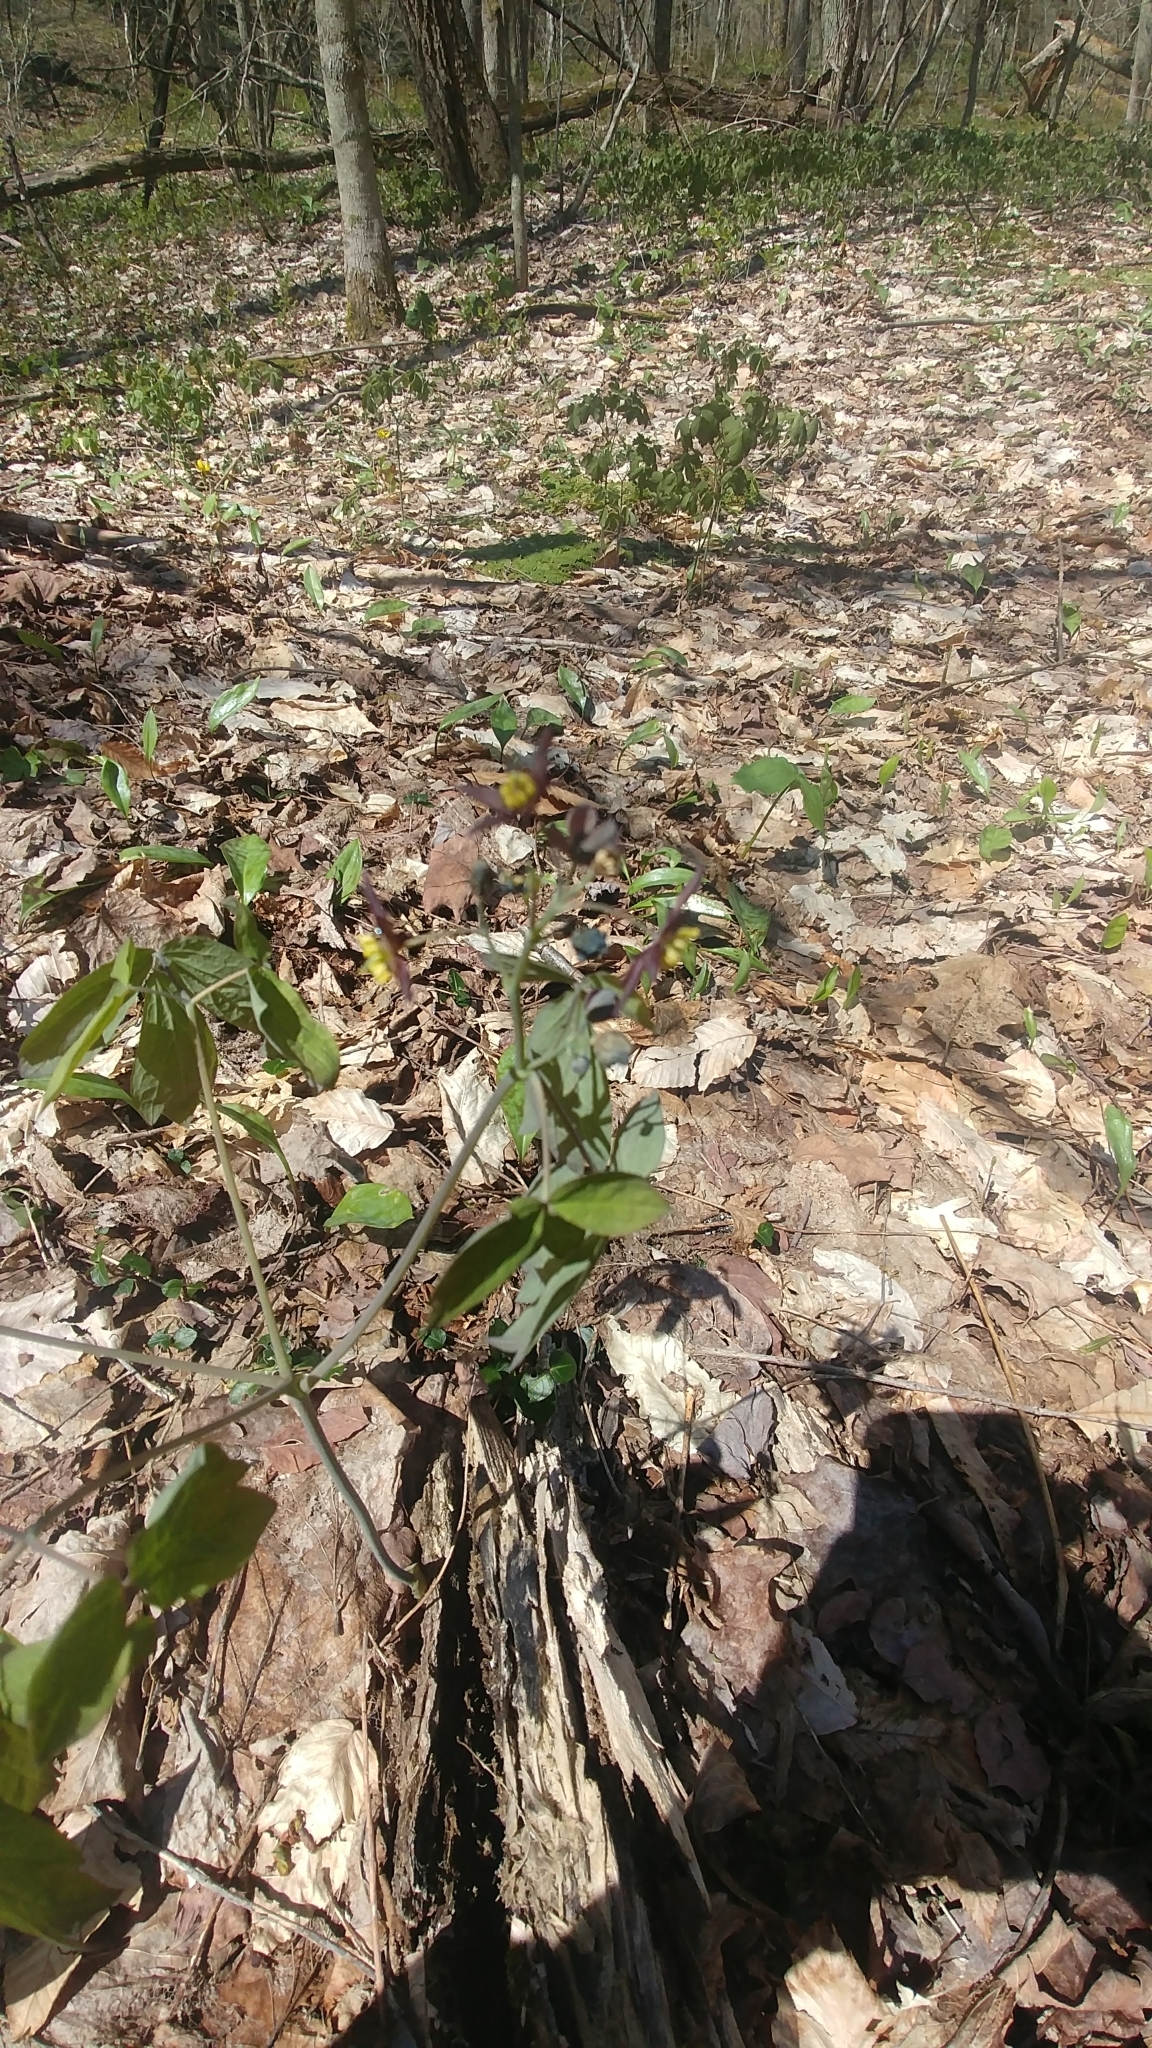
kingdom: Plantae
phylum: Tracheophyta
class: Magnoliopsida
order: Ranunculales
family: Berberidaceae
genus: Caulophyllum
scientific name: Caulophyllum giganteum
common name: Blue cohosh
